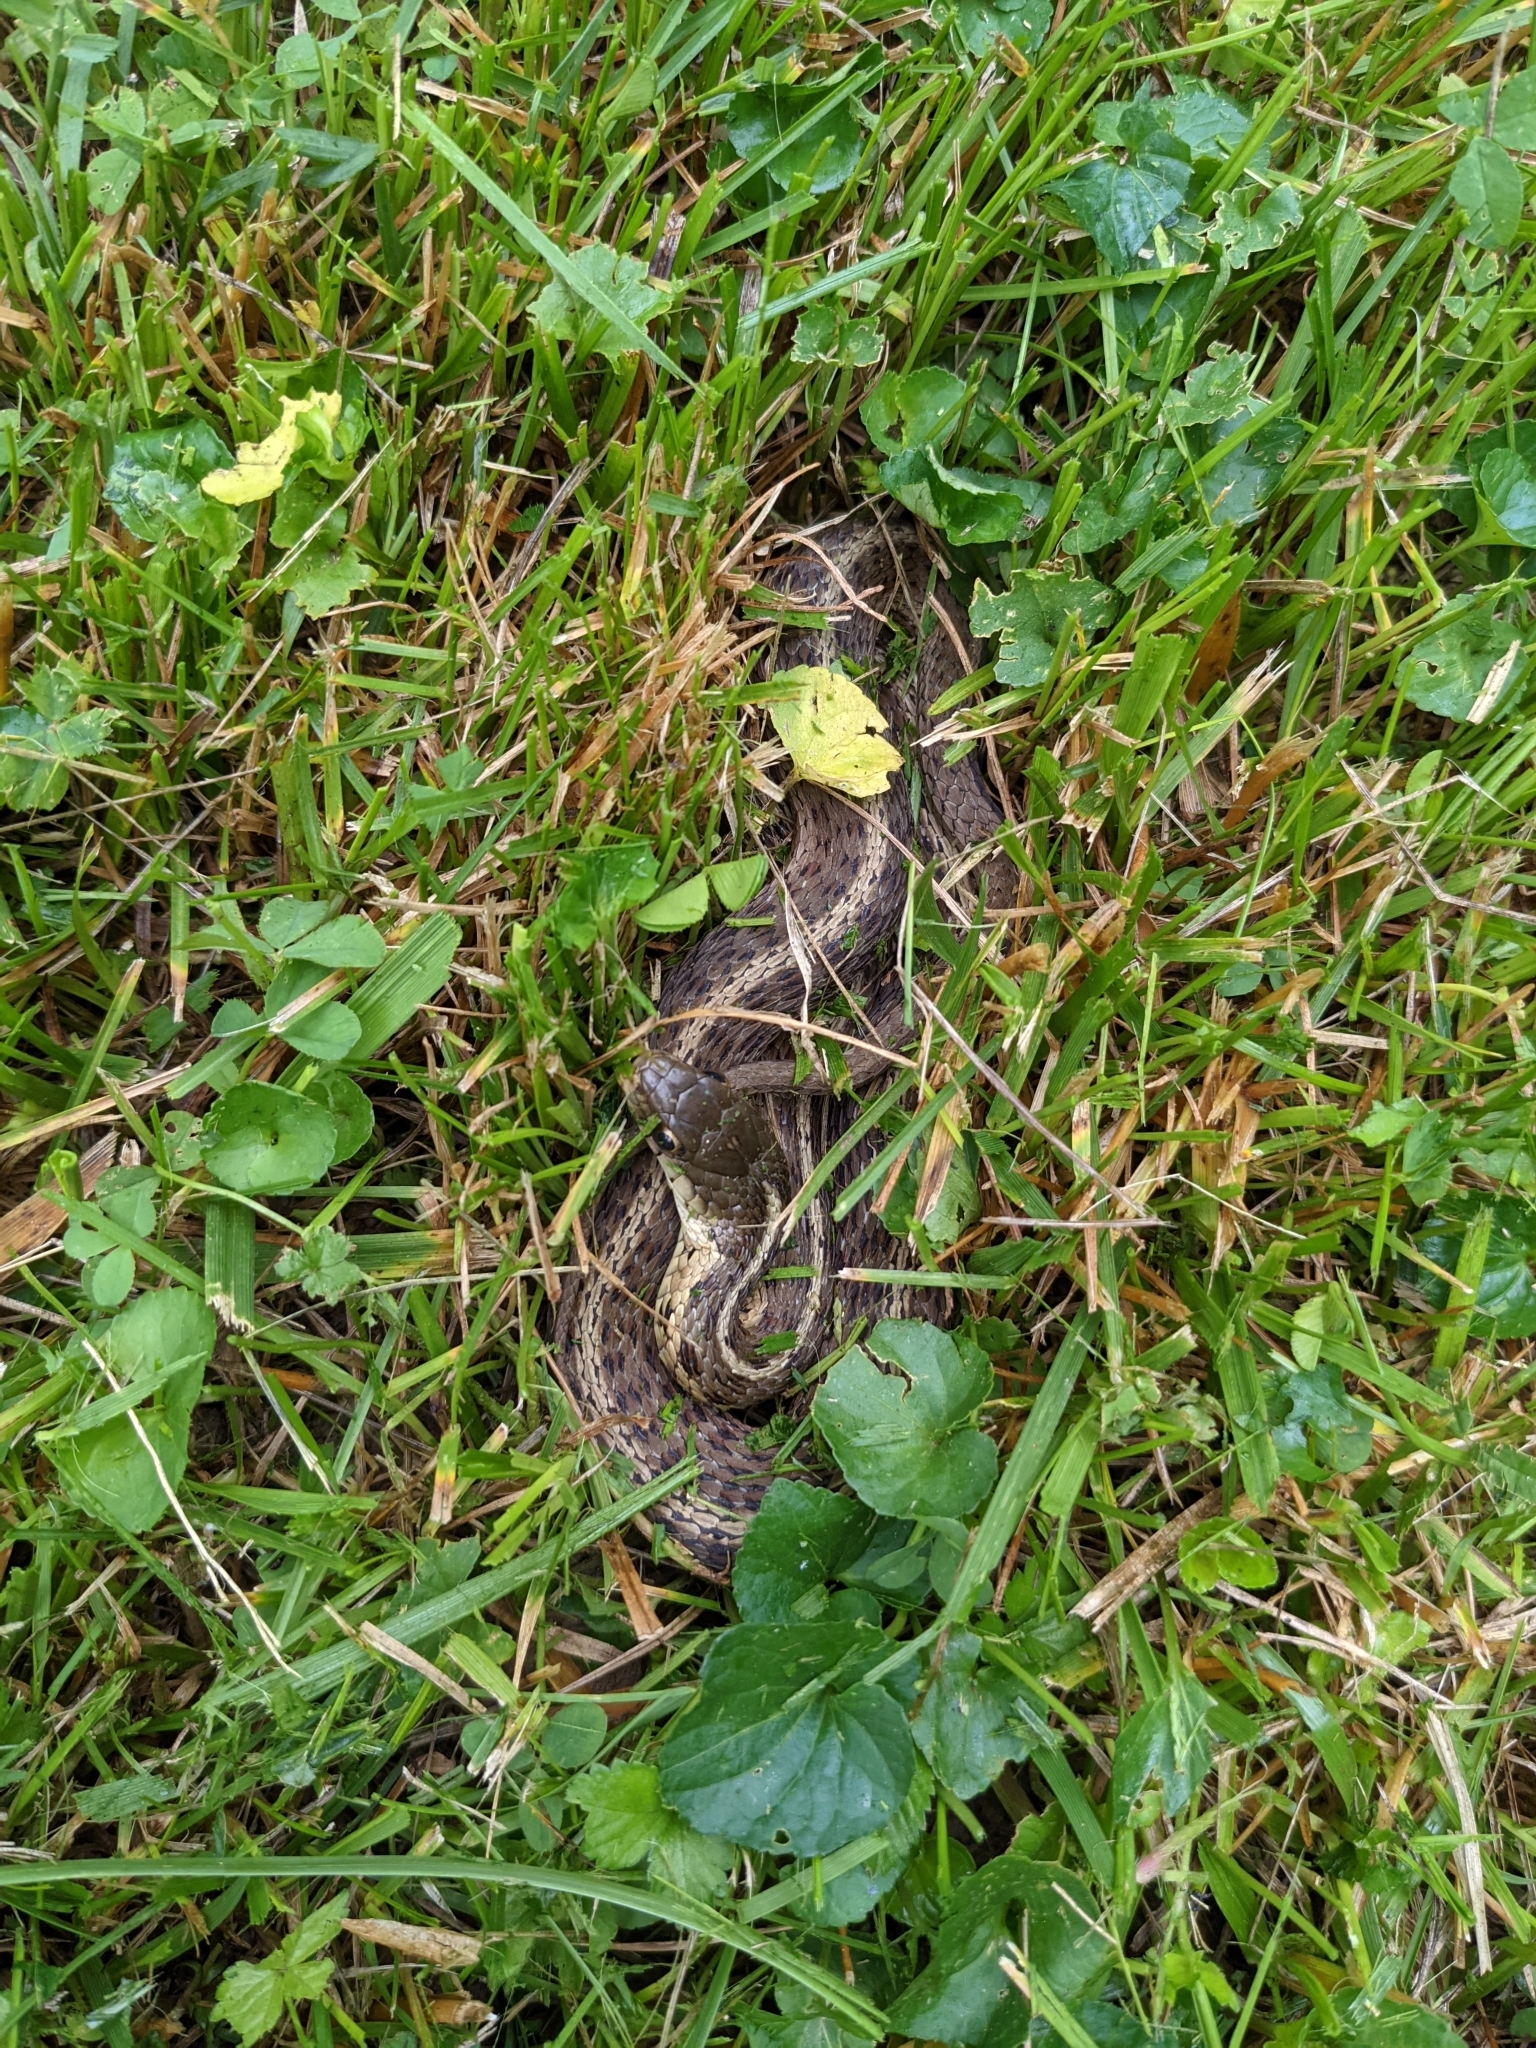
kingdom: Animalia
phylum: Chordata
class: Squamata
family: Colubridae
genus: Thamnophis
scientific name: Thamnophis sirtalis
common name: Common garter snake
